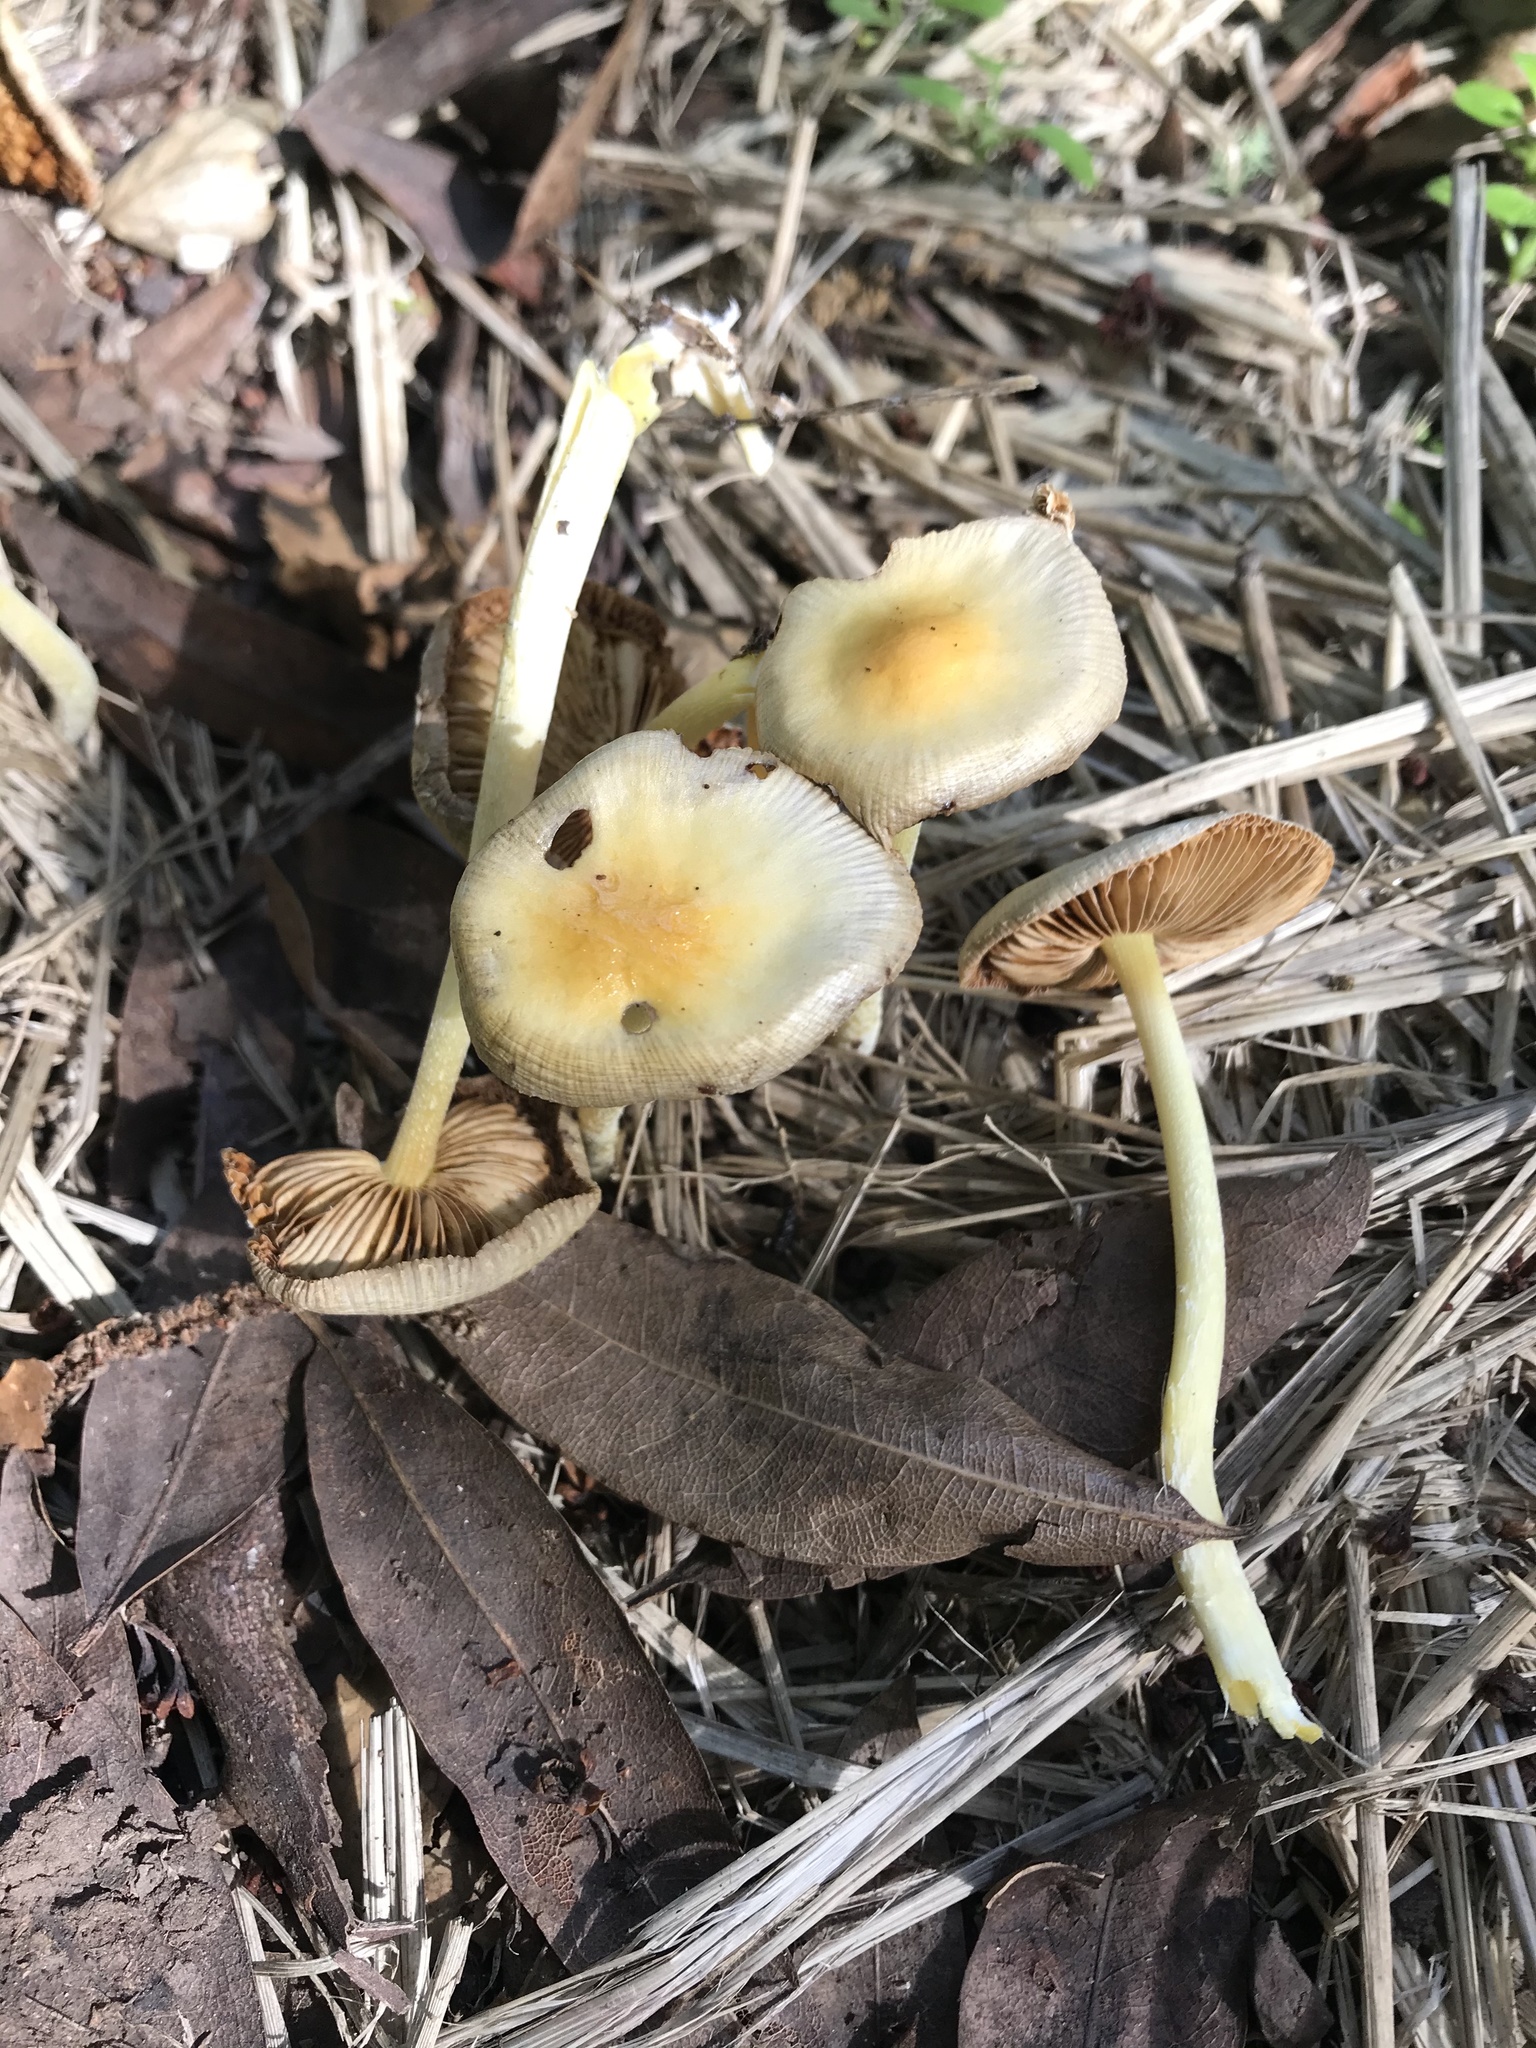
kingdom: Fungi
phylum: Basidiomycota
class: Agaricomycetes
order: Agaricales
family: Bolbitiaceae
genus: Bolbitius
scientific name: Bolbitius titubans
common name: Yellow fieldcap
